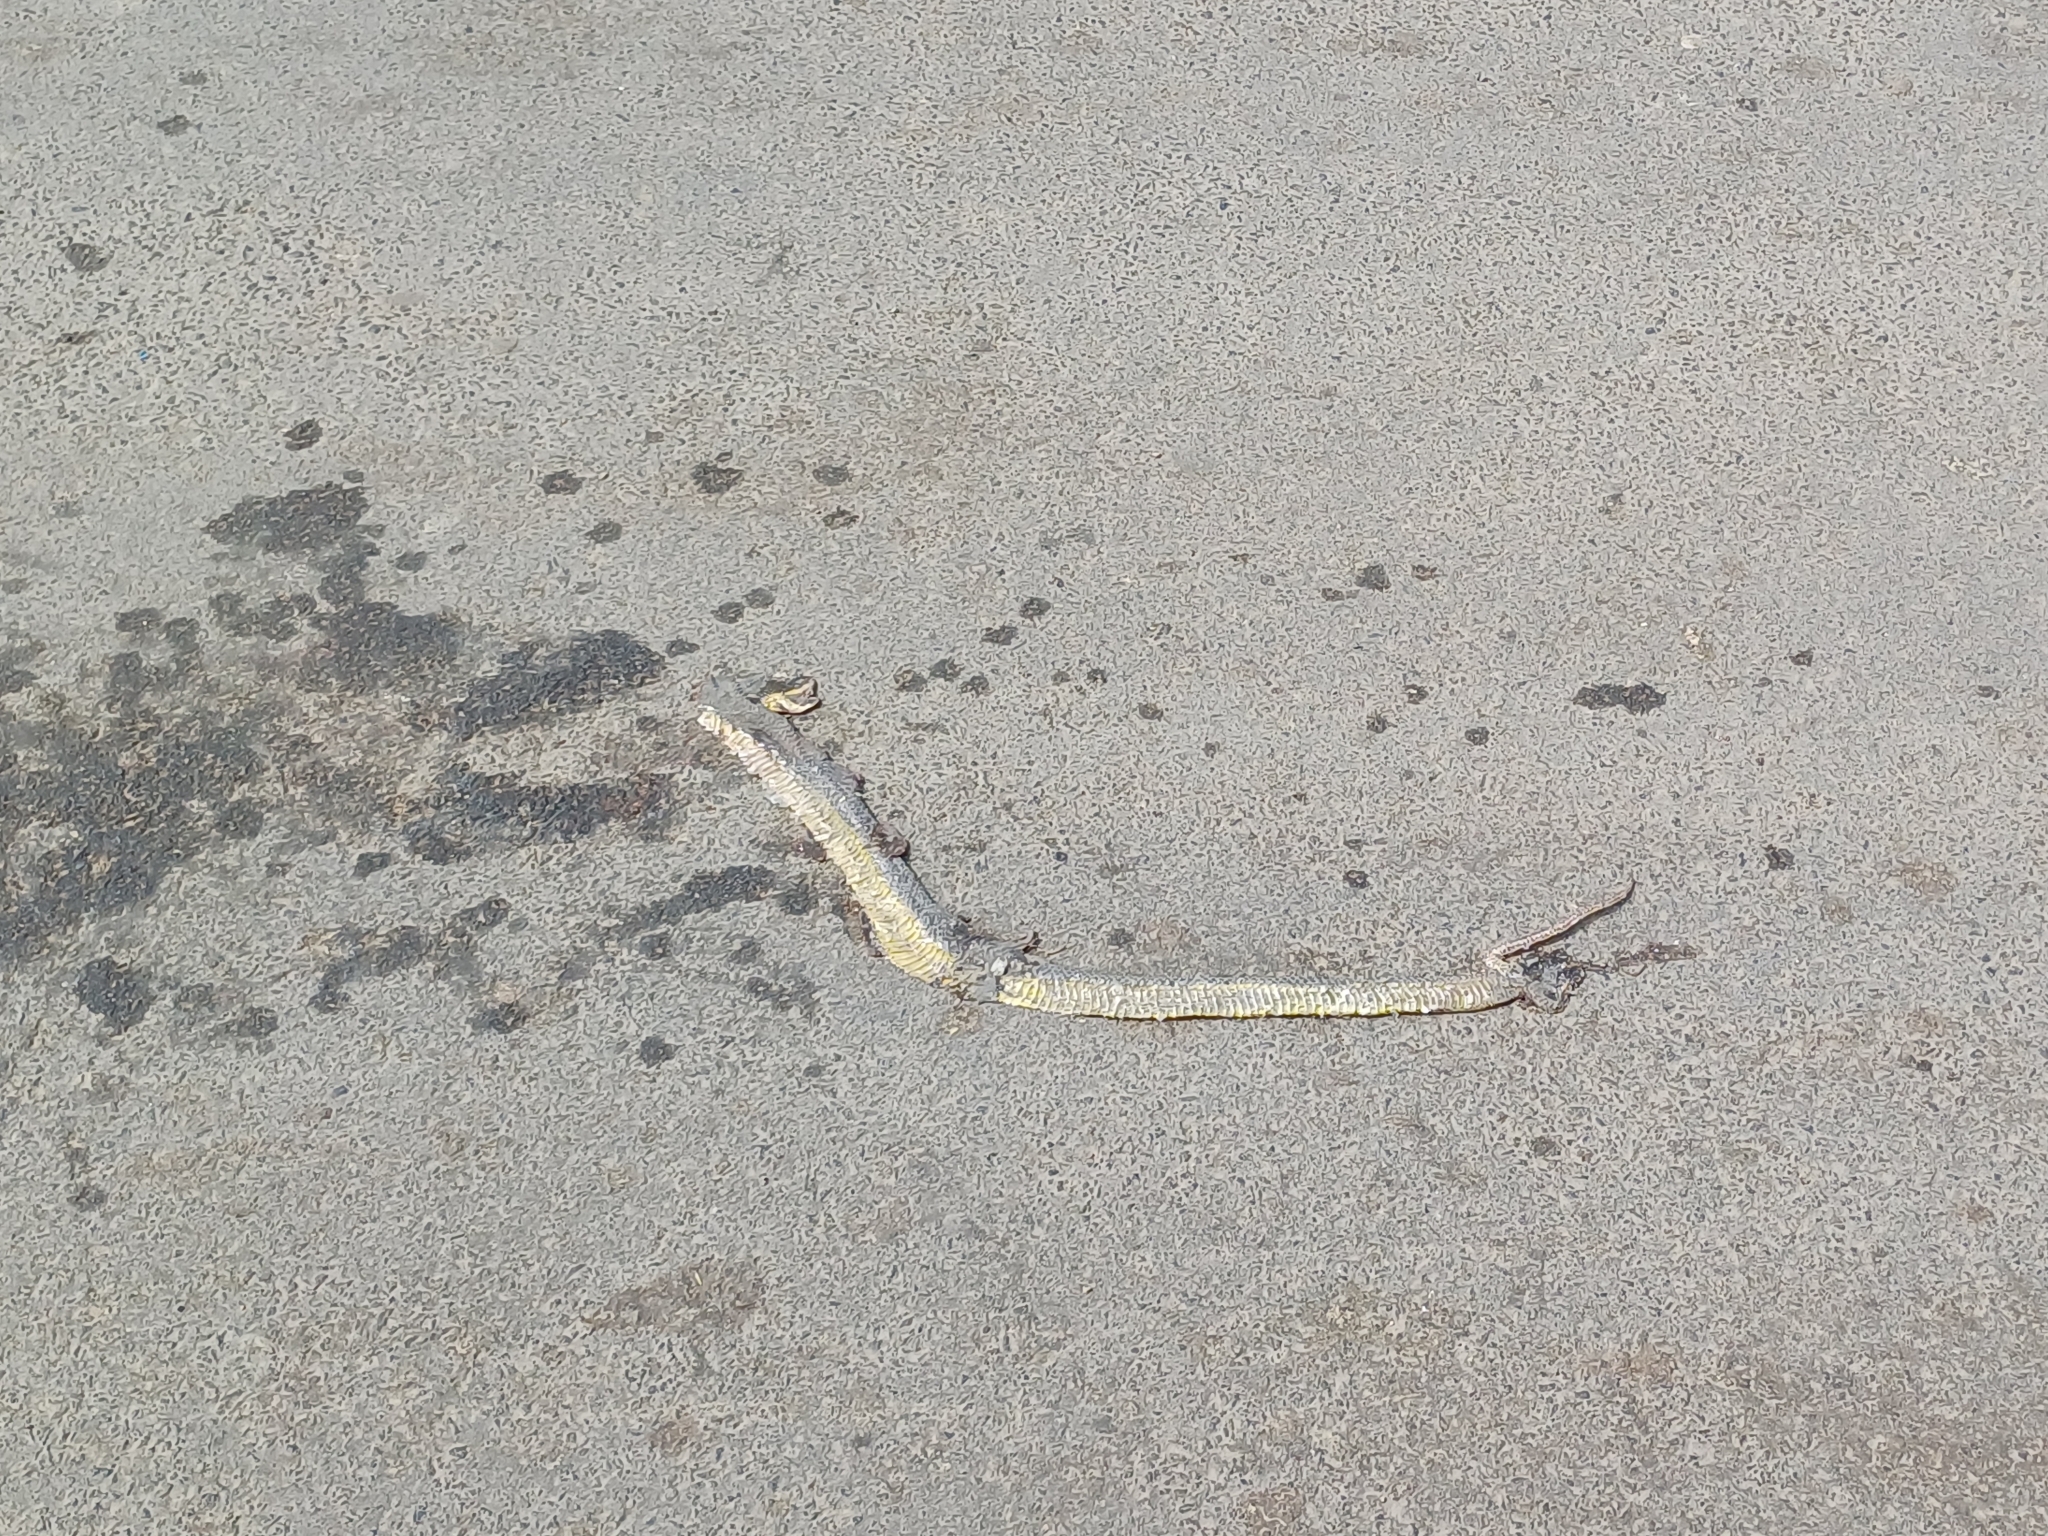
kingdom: Animalia
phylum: Chordata
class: Squamata
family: Colubridae
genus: Atretium
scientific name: Atretium schistosum
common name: Olive keelback wart snake
